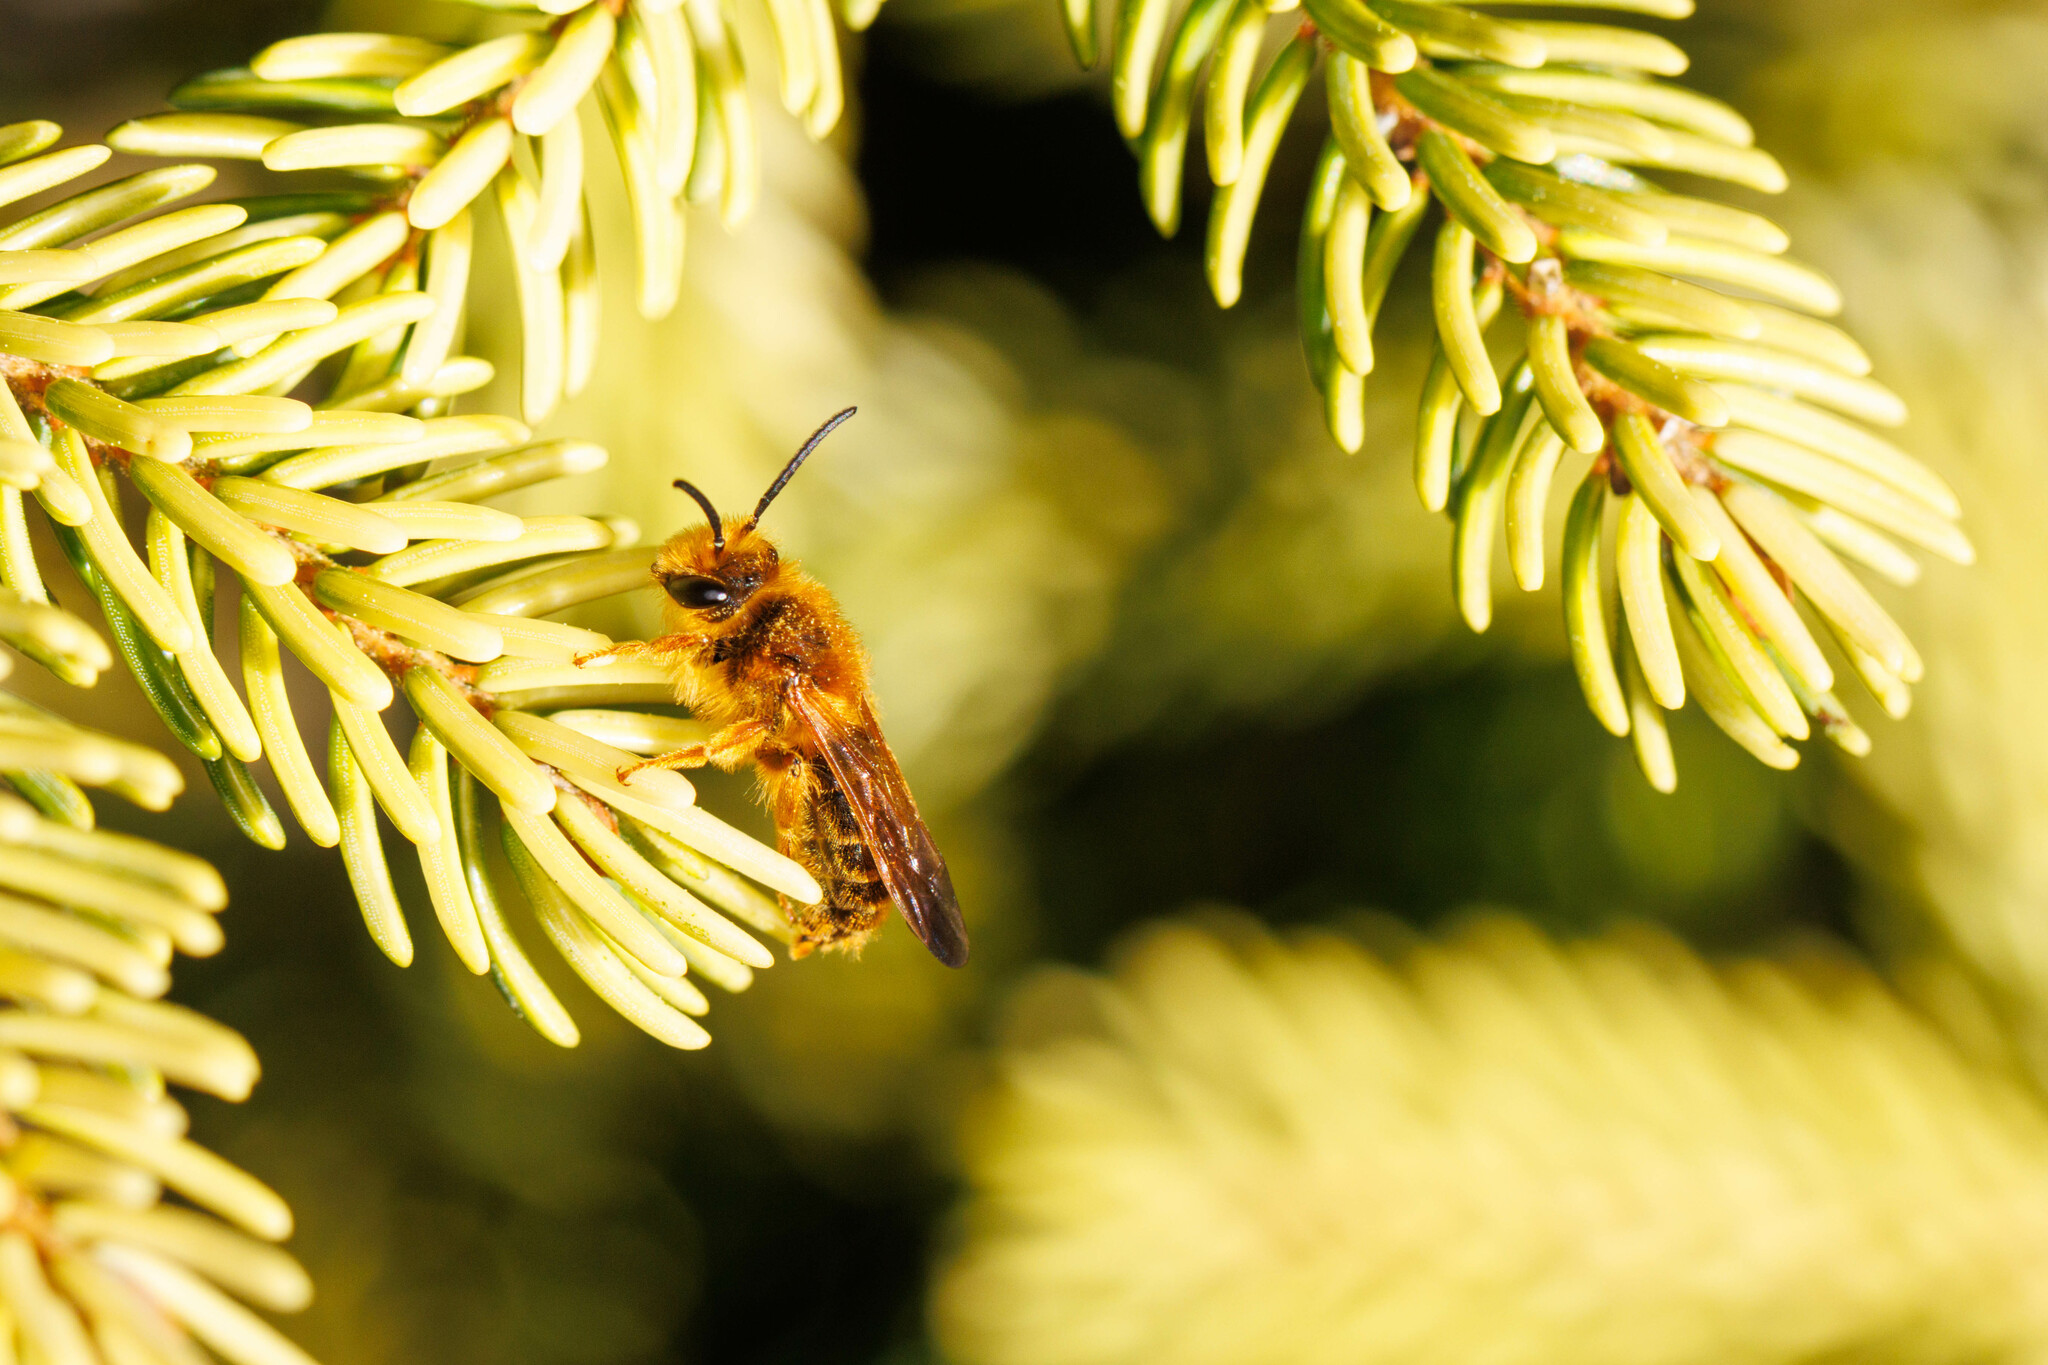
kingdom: Animalia
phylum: Arthropoda
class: Insecta
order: Hymenoptera
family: Andrenidae
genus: Andrena
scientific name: Andrena prunorum
